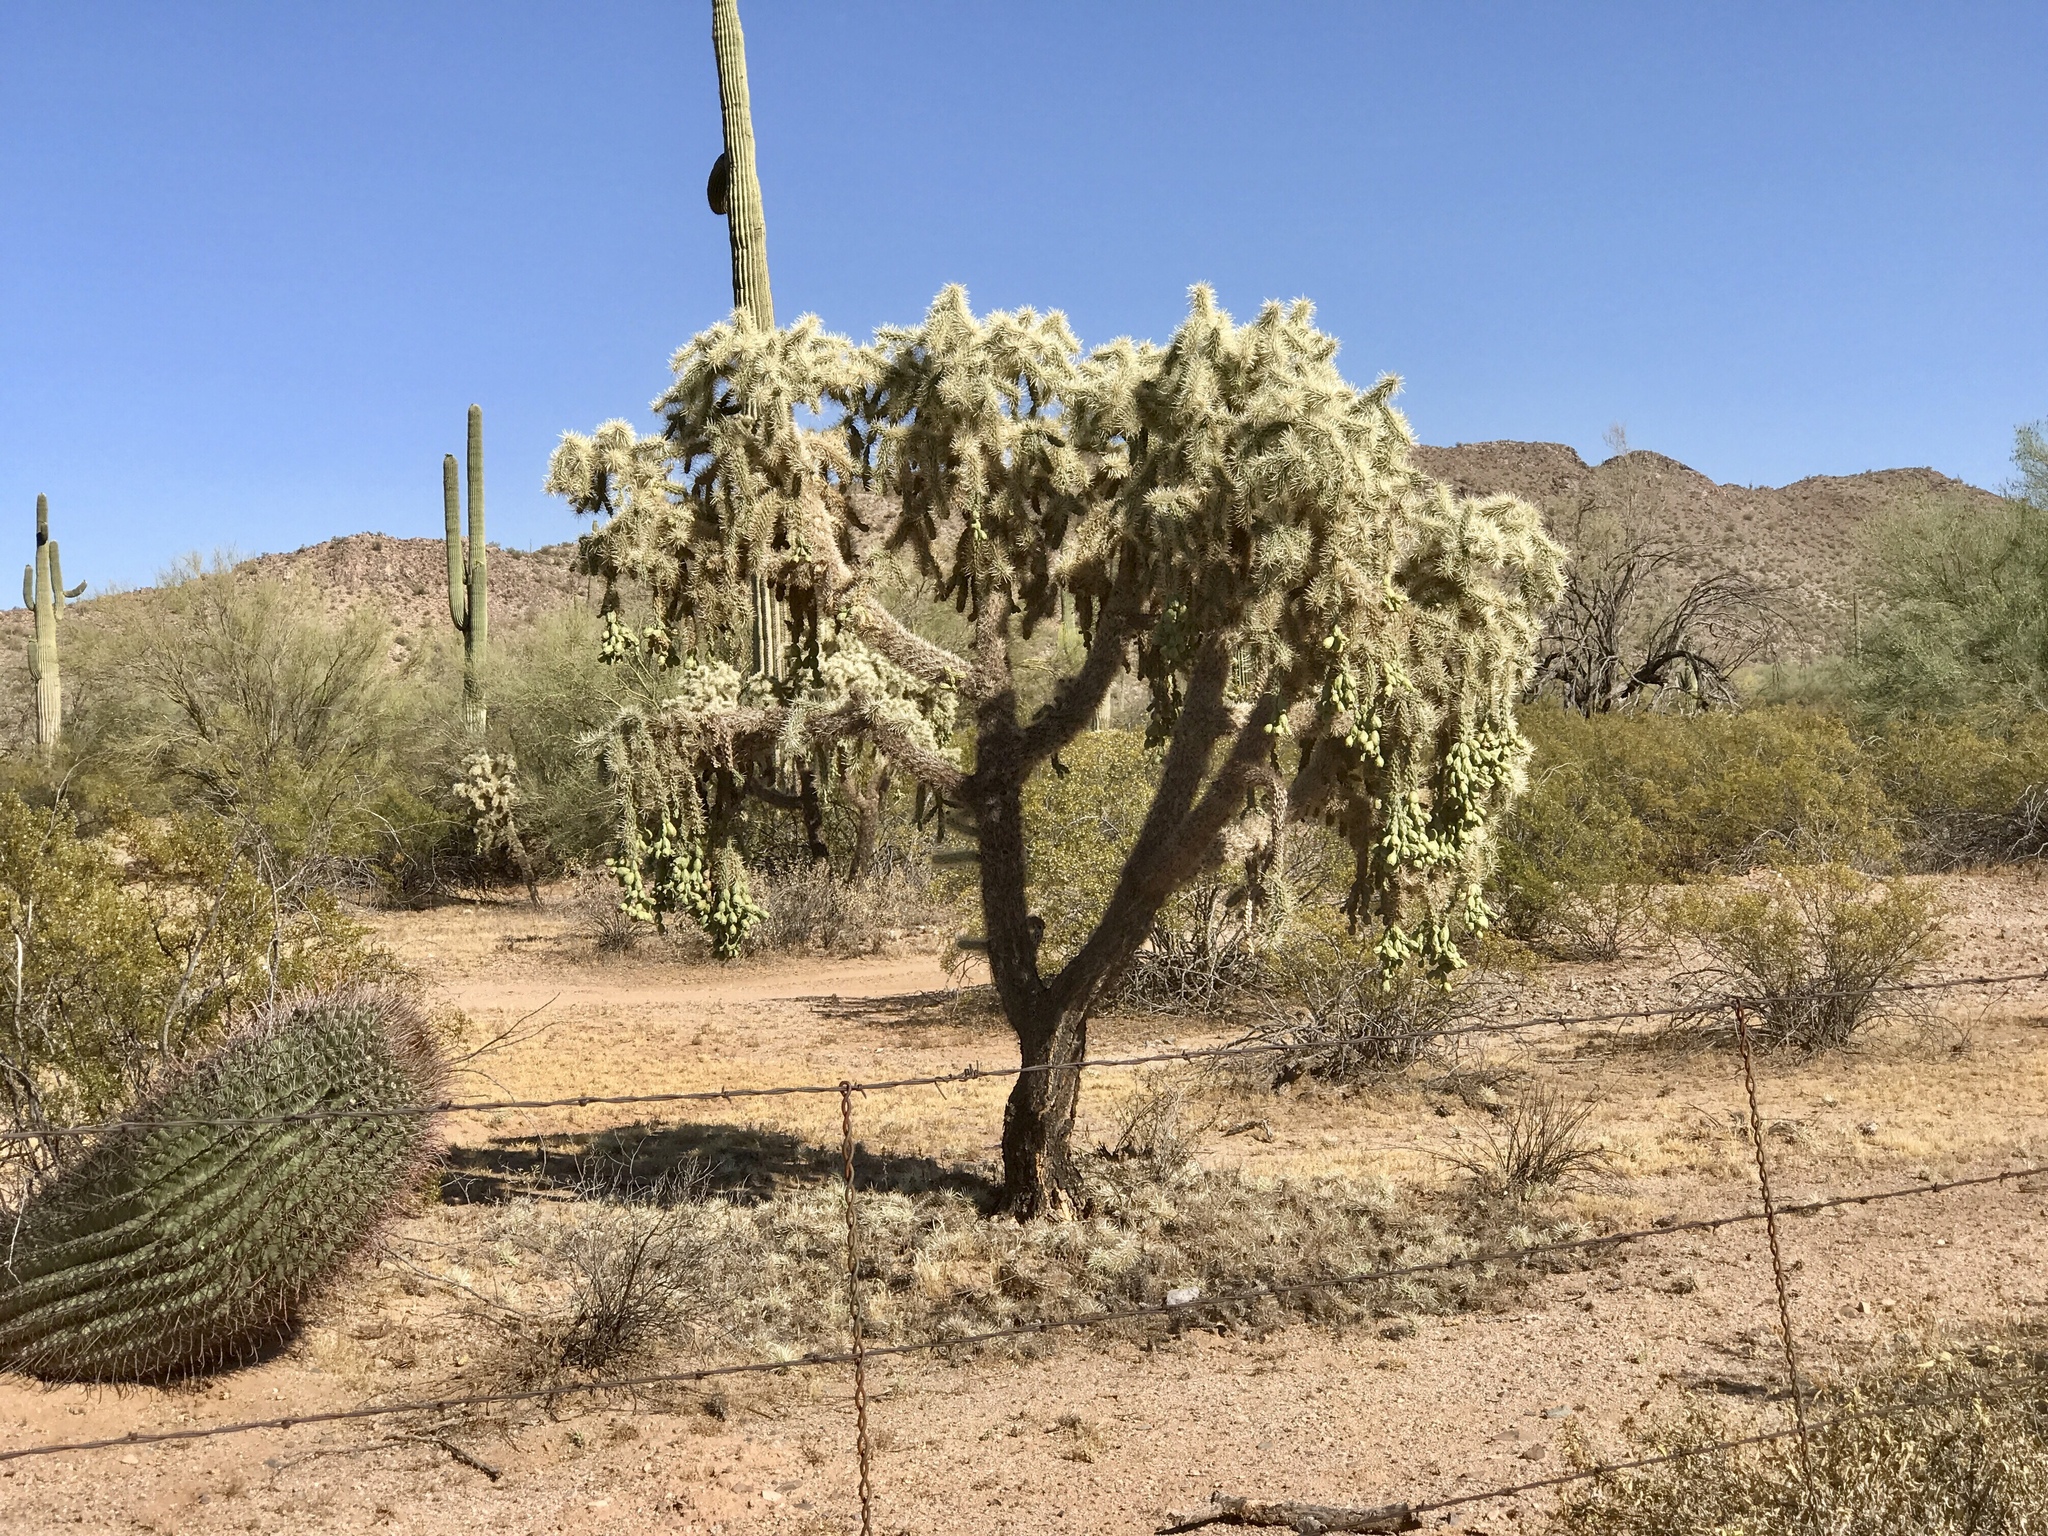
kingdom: Plantae
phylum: Tracheophyta
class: Magnoliopsida
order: Caryophyllales
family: Cactaceae
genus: Cylindropuntia
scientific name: Cylindropuntia fulgida
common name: Jumping cholla
